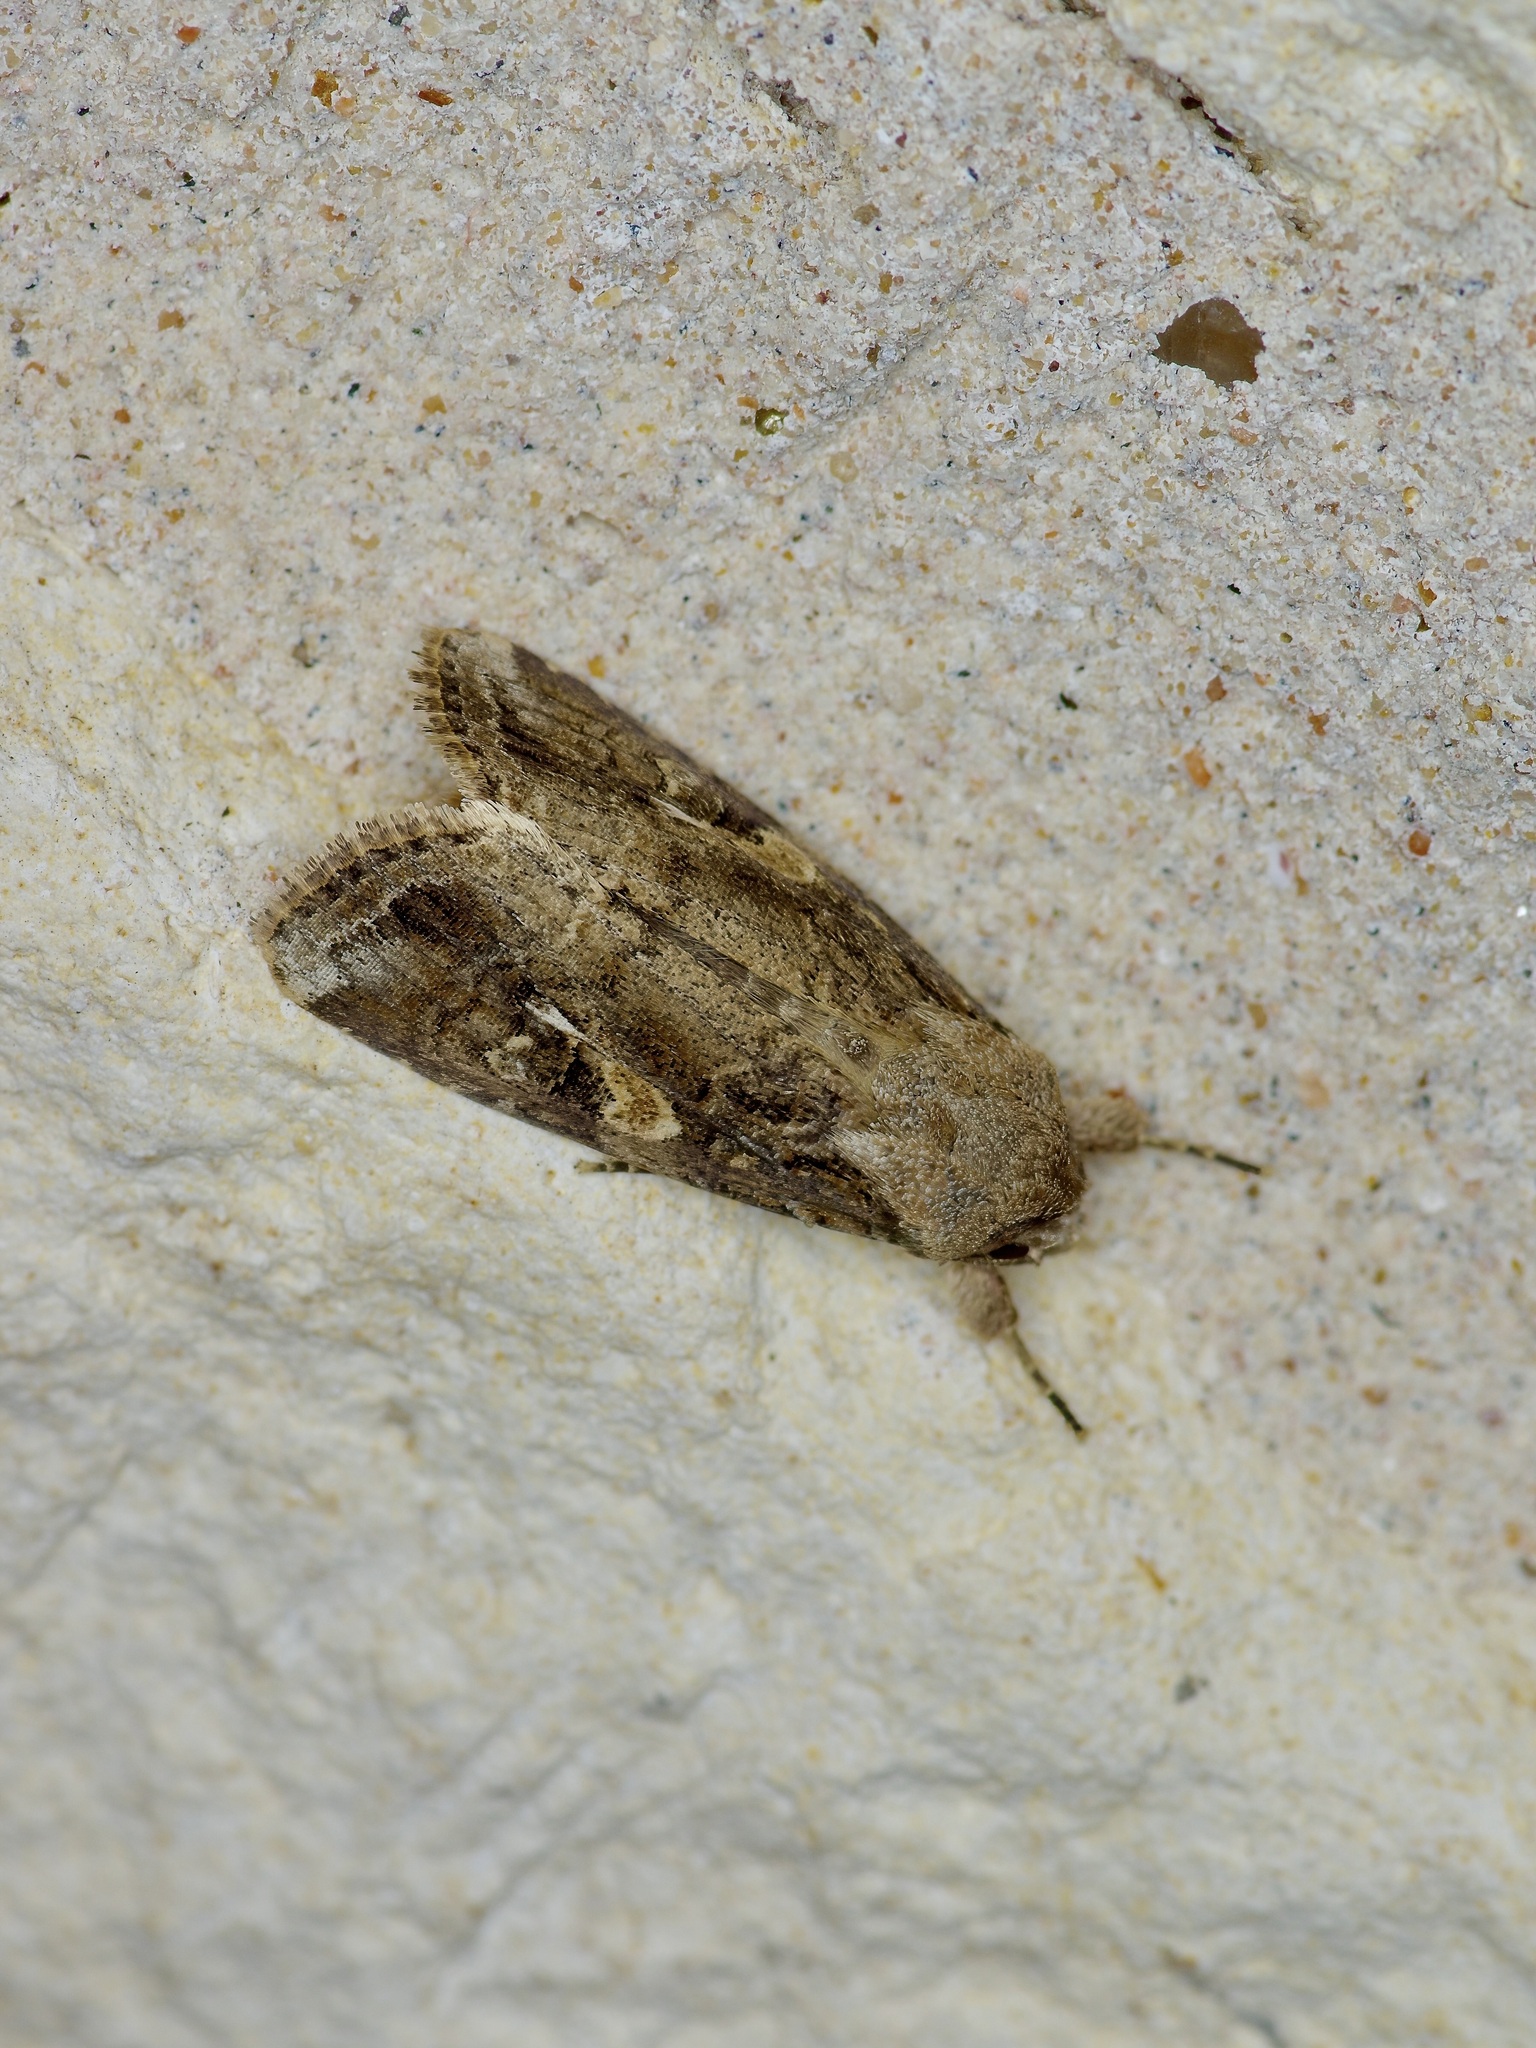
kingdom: Animalia
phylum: Arthropoda
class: Insecta
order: Lepidoptera
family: Noctuidae
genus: Spodoptera
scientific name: Spodoptera frugiperda
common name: Fall armyworm
